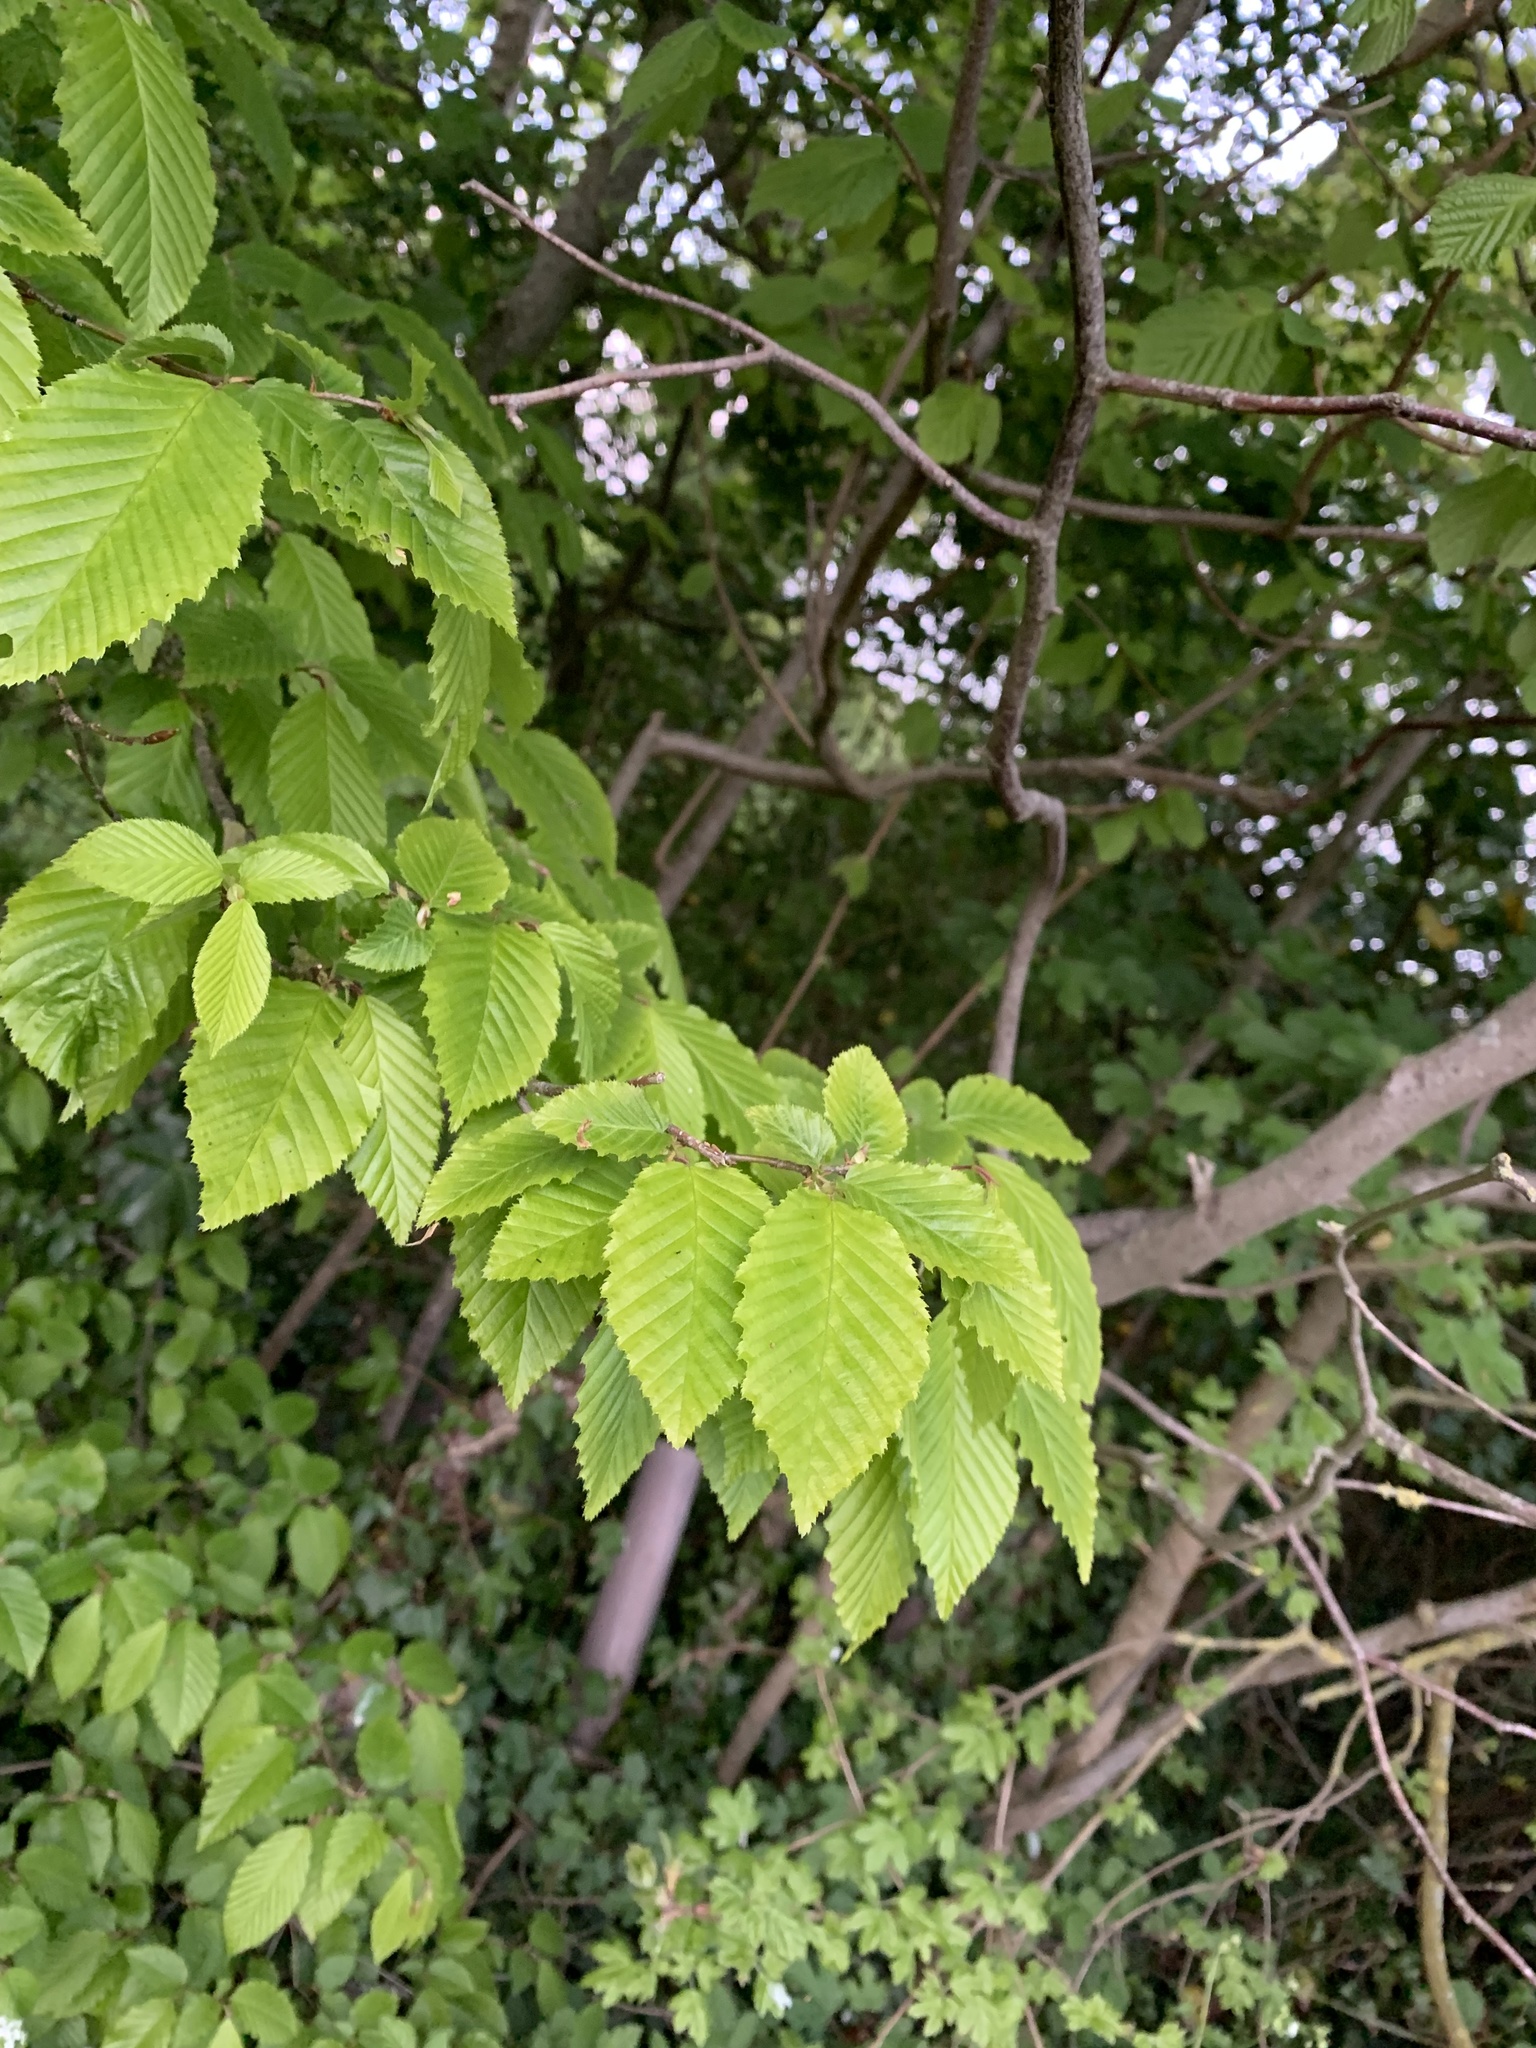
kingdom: Plantae
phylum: Tracheophyta
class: Magnoliopsida
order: Fagales
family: Betulaceae
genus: Carpinus
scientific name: Carpinus betulus
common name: Hornbeam
